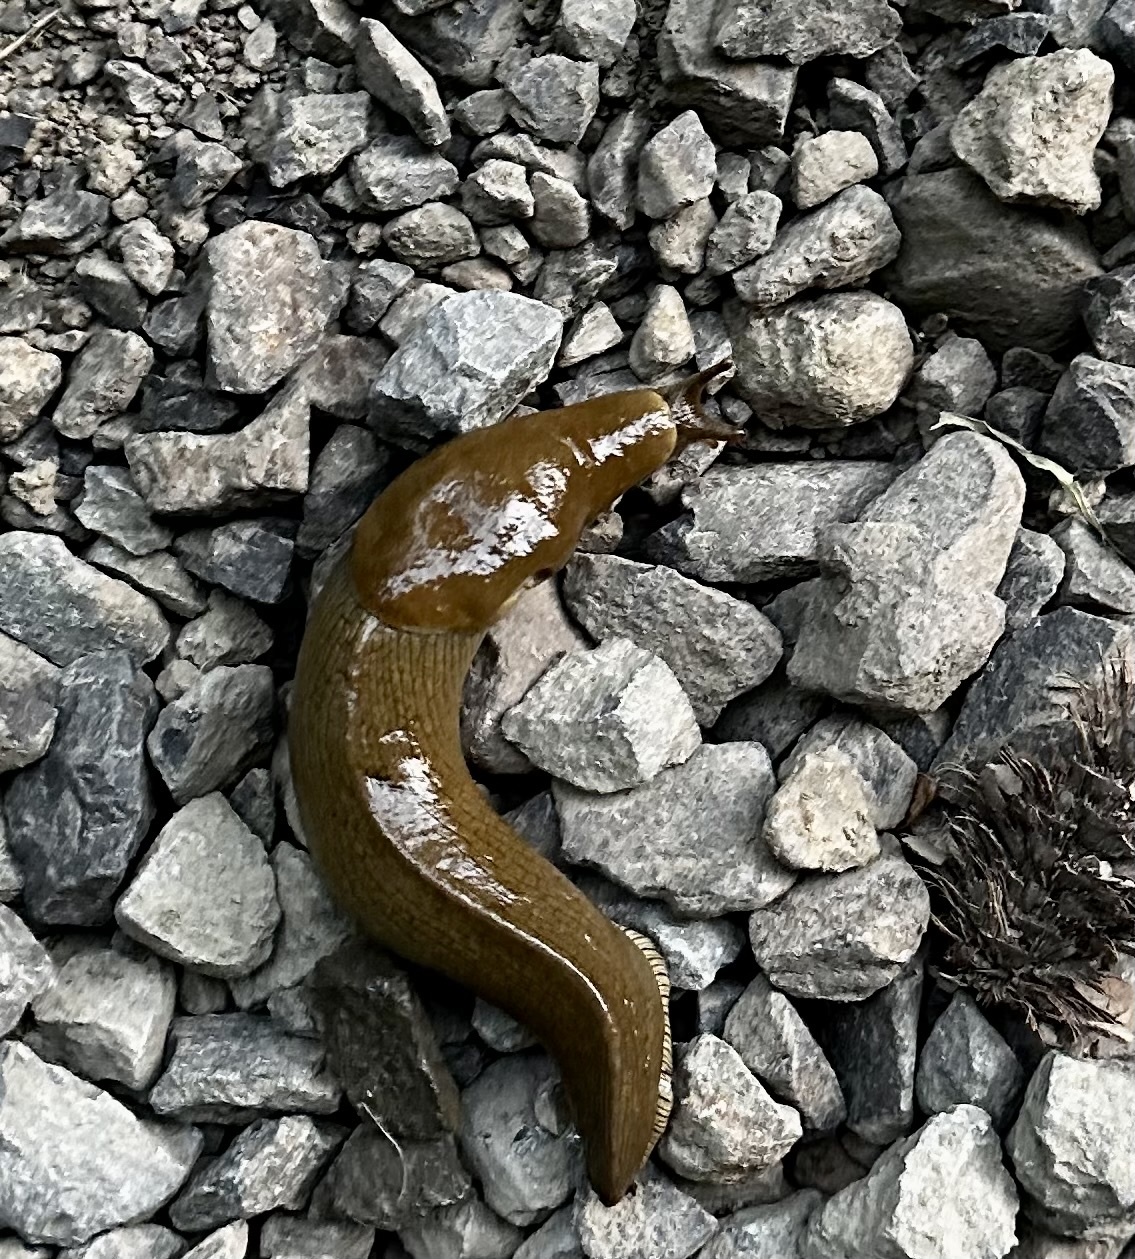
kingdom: Animalia
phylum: Mollusca
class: Gastropoda
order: Stylommatophora
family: Ariolimacidae
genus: Ariolimax
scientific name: Ariolimax columbianus
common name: Pacific banana slug
